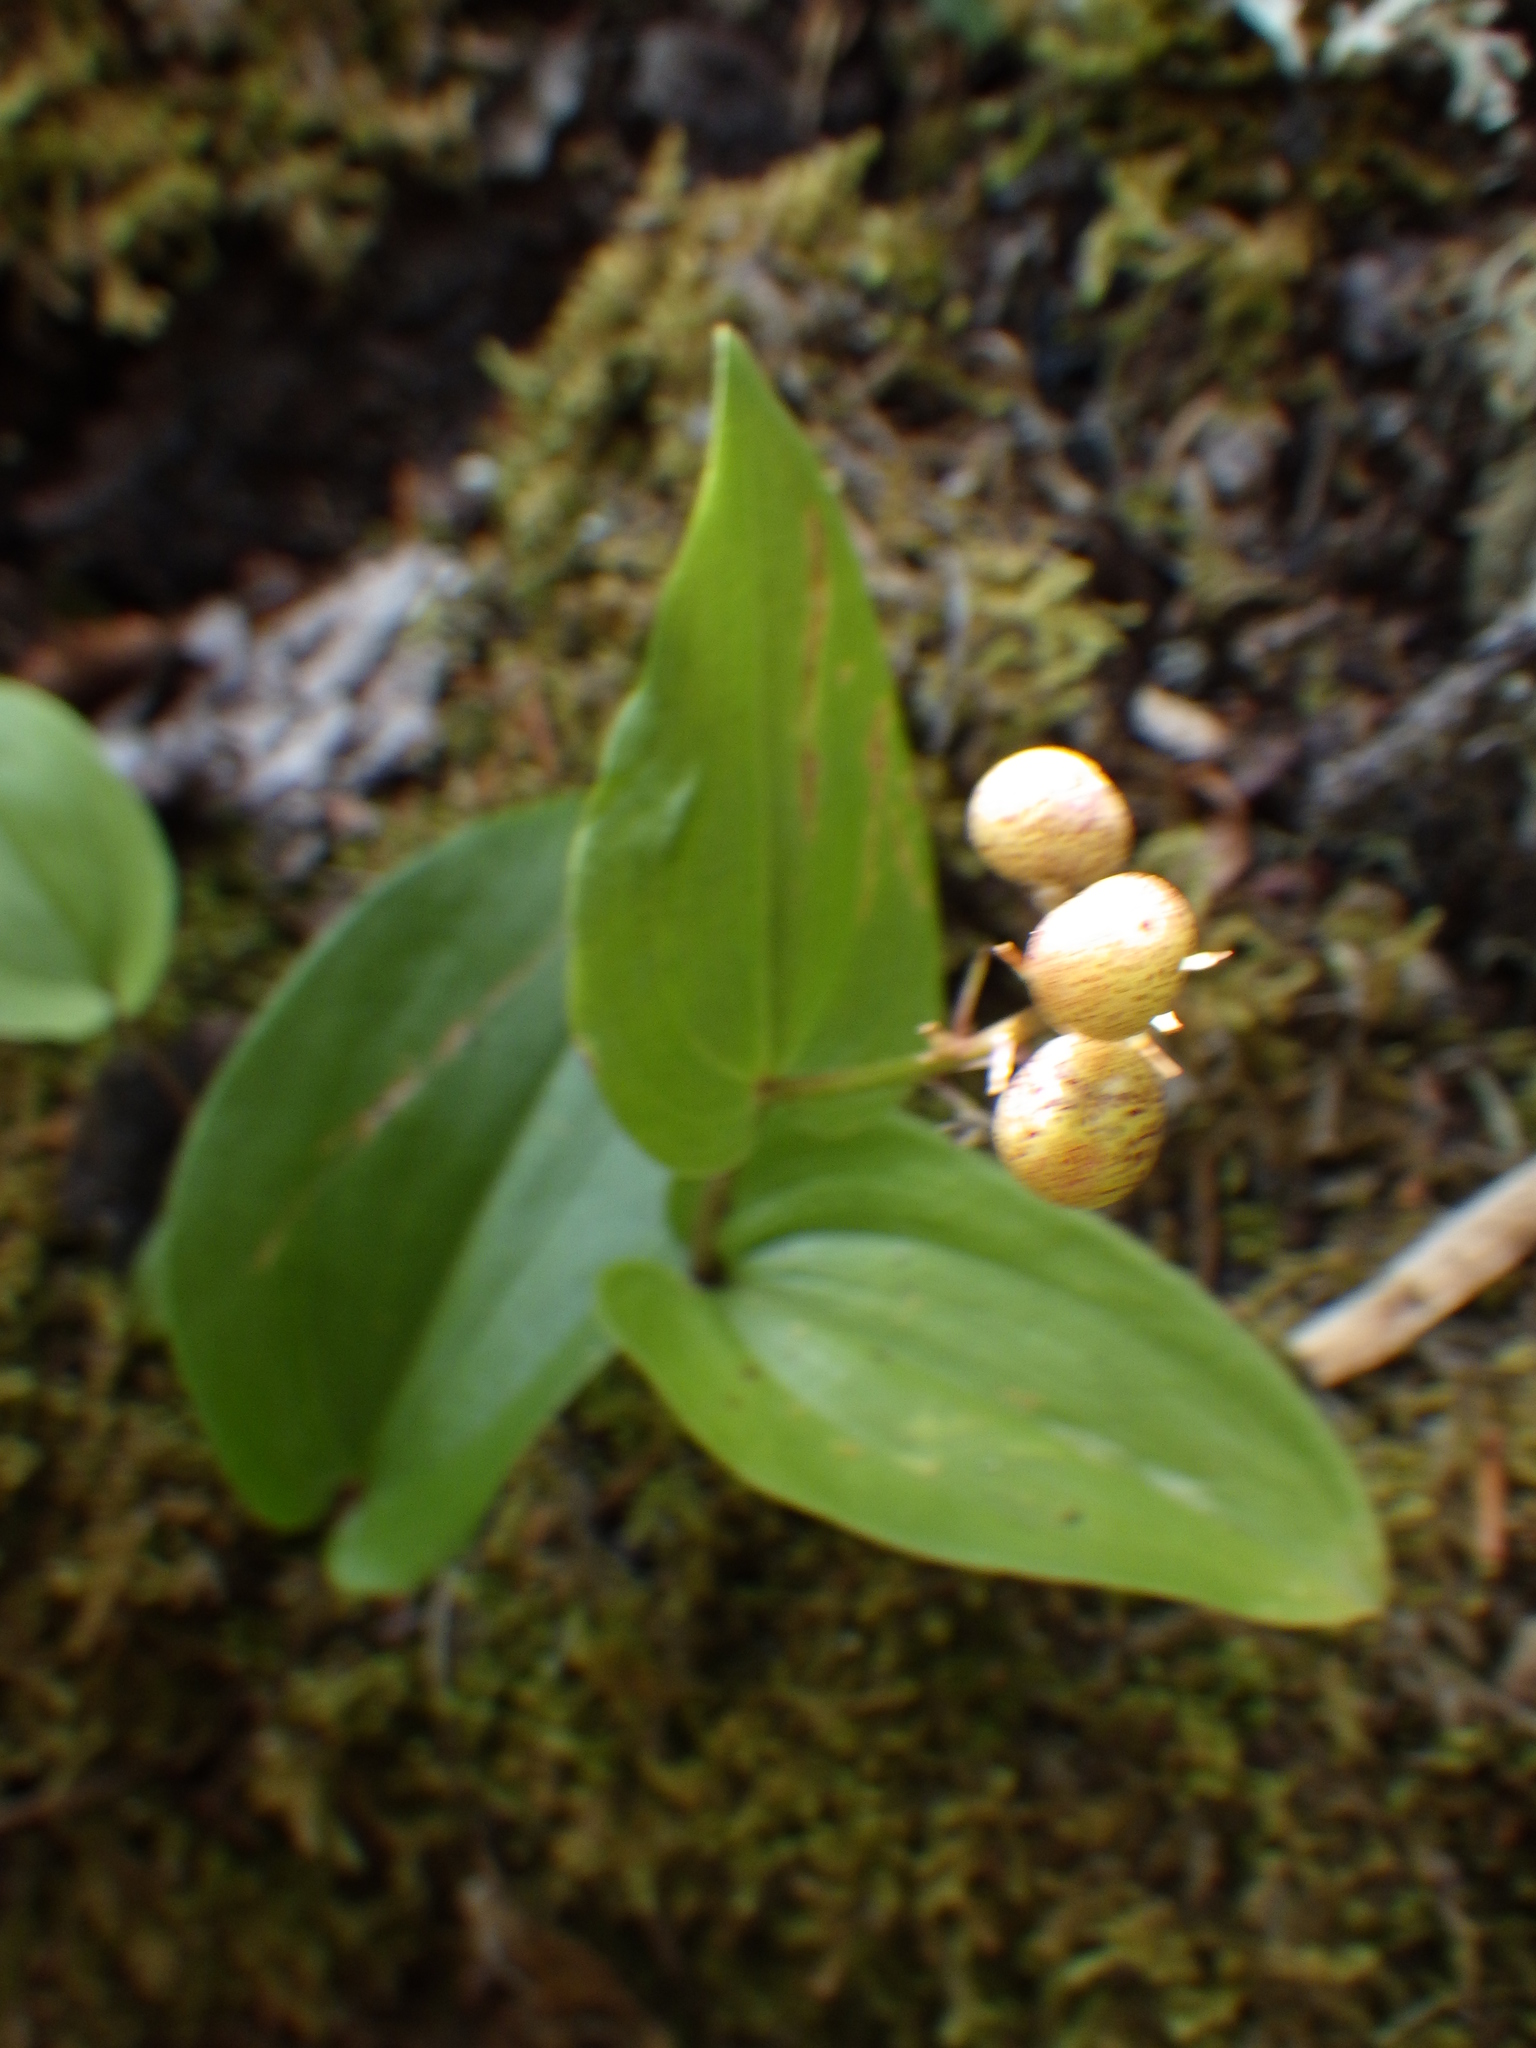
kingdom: Plantae
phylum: Tracheophyta
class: Liliopsida
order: Asparagales
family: Asparagaceae
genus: Maianthemum
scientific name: Maianthemum canadense
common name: False lily-of-the-valley
